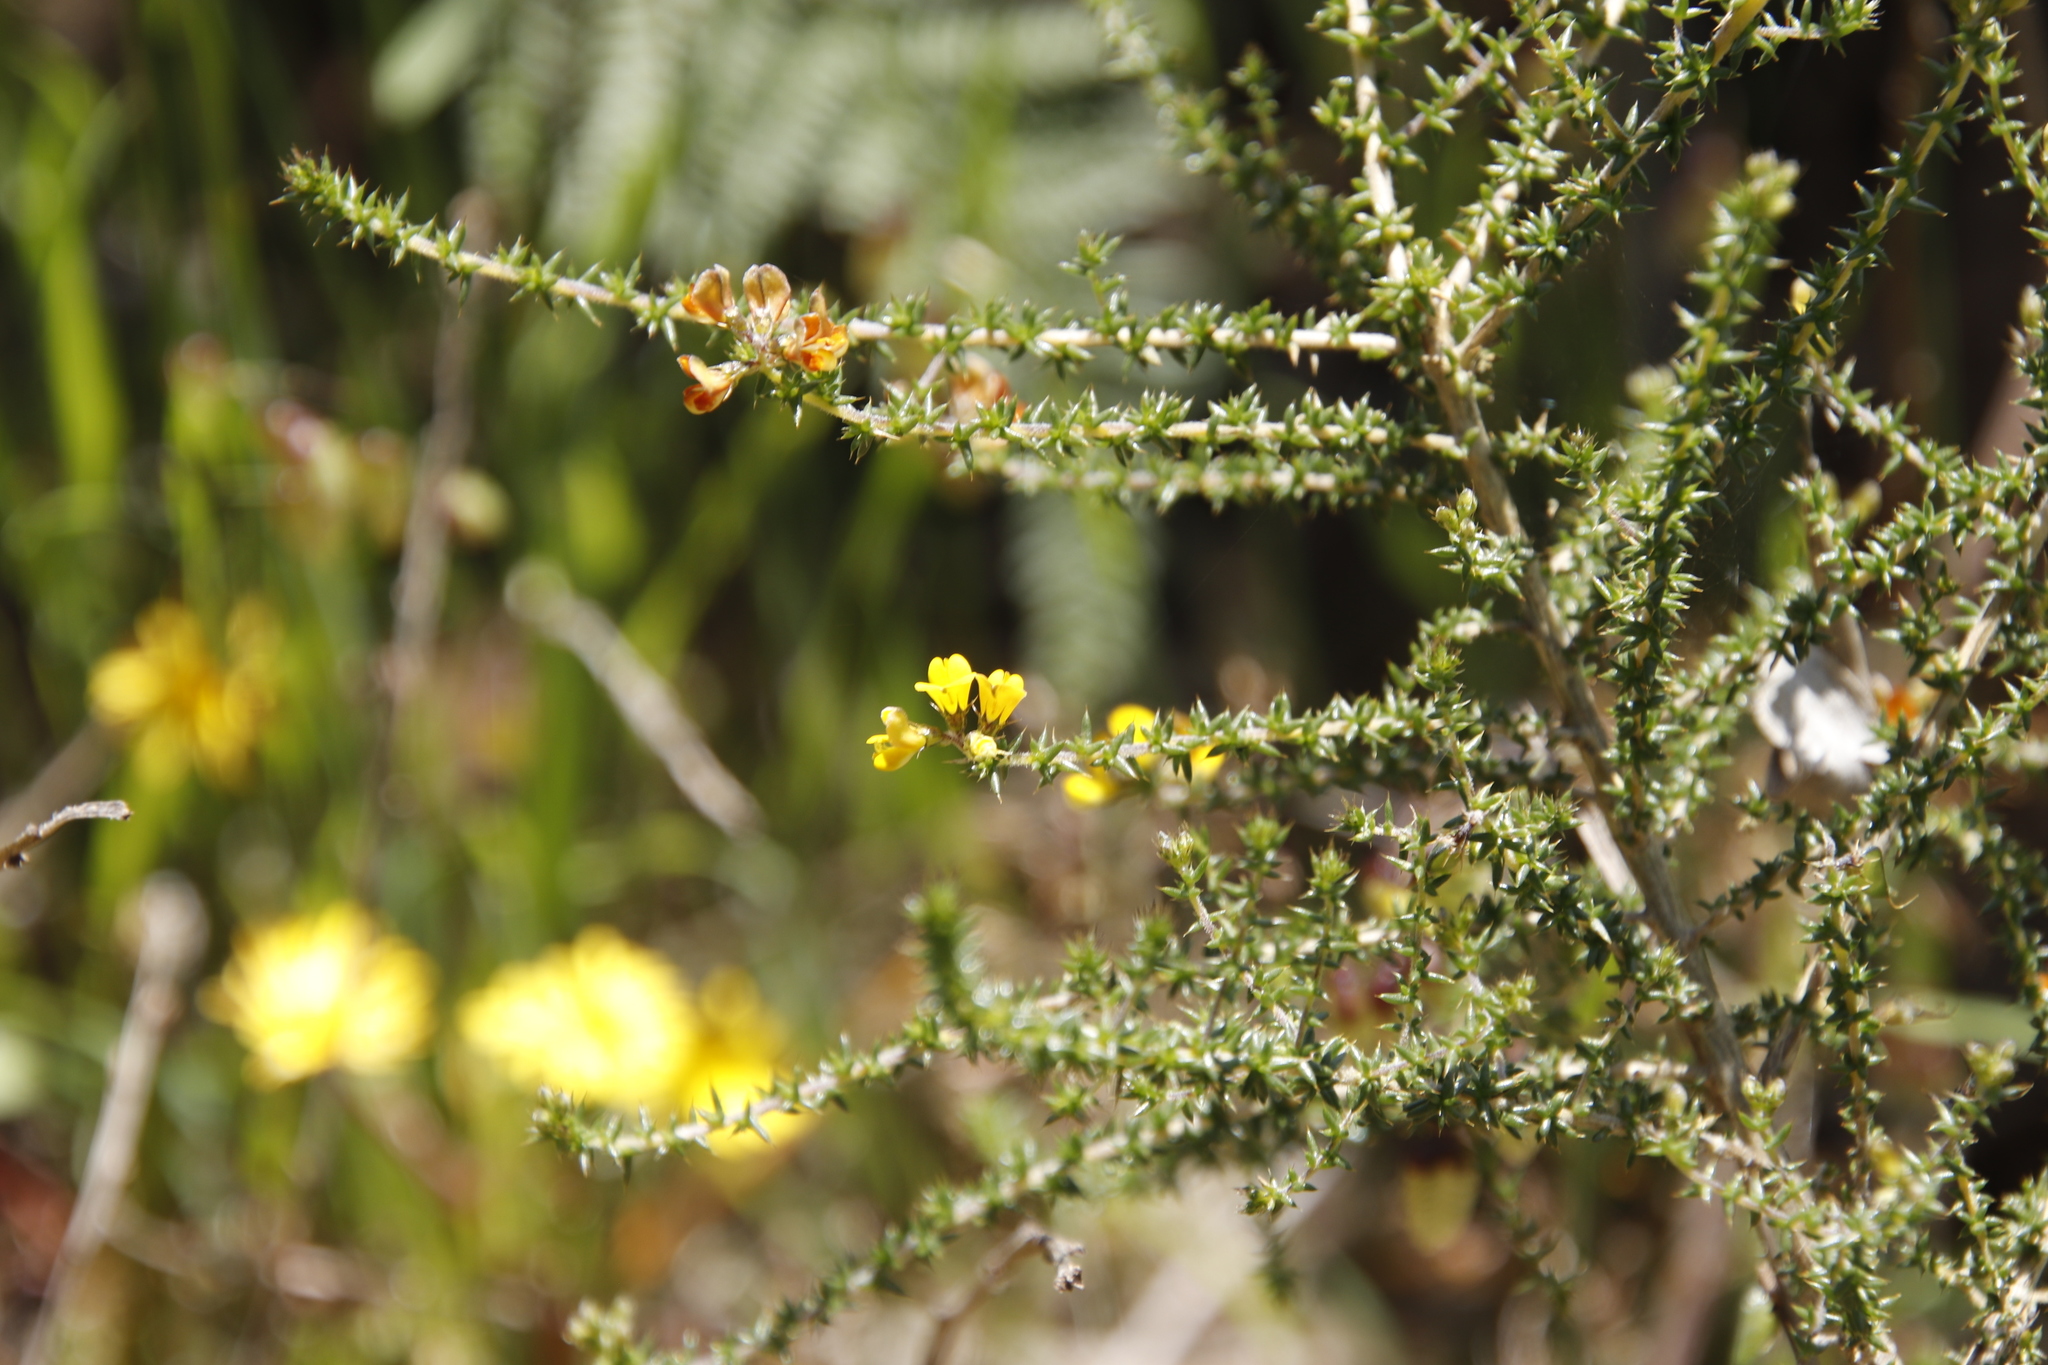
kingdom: Plantae
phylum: Tracheophyta
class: Magnoliopsida
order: Fabales
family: Fabaceae
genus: Aspalathus
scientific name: Aspalathus divaricata
